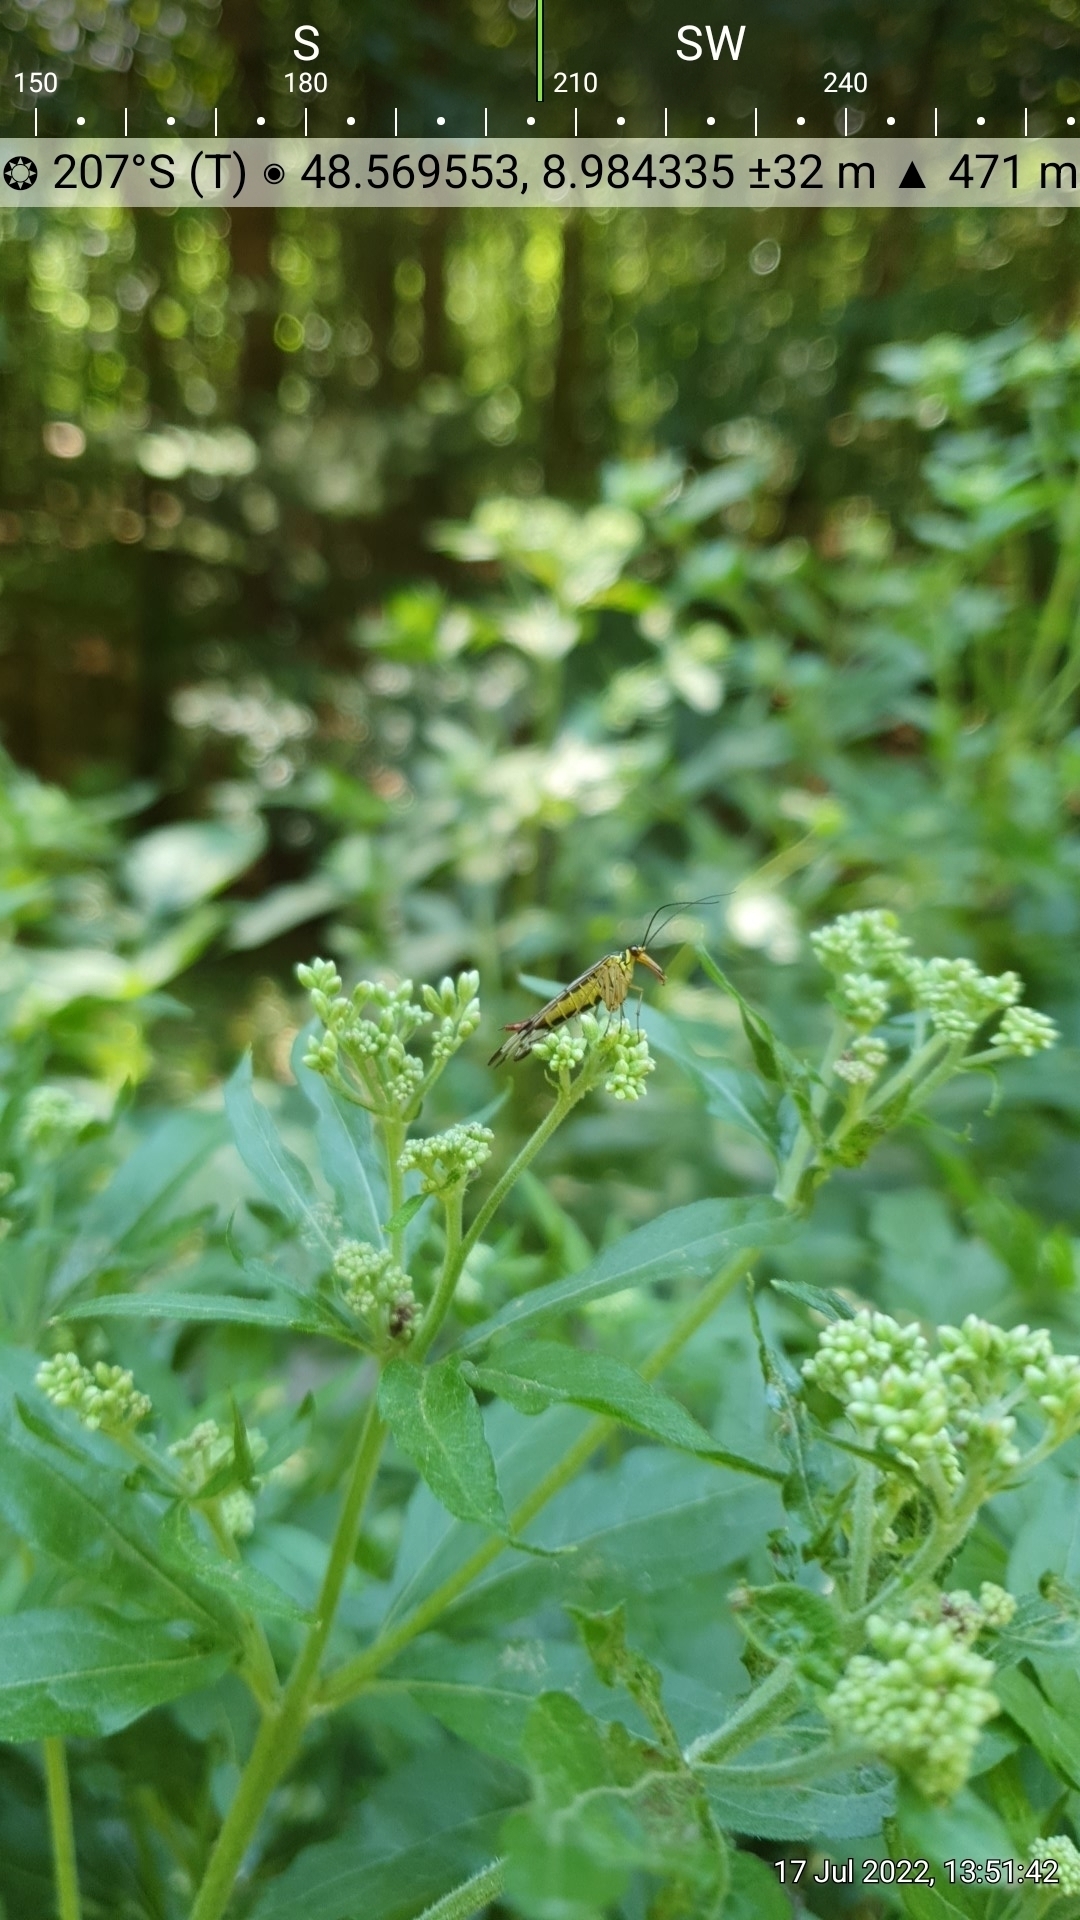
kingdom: Plantae
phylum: Tracheophyta
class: Magnoliopsida
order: Asterales
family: Asteraceae
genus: Eupatorium
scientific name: Eupatorium cannabinum
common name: Hemp-agrimony
